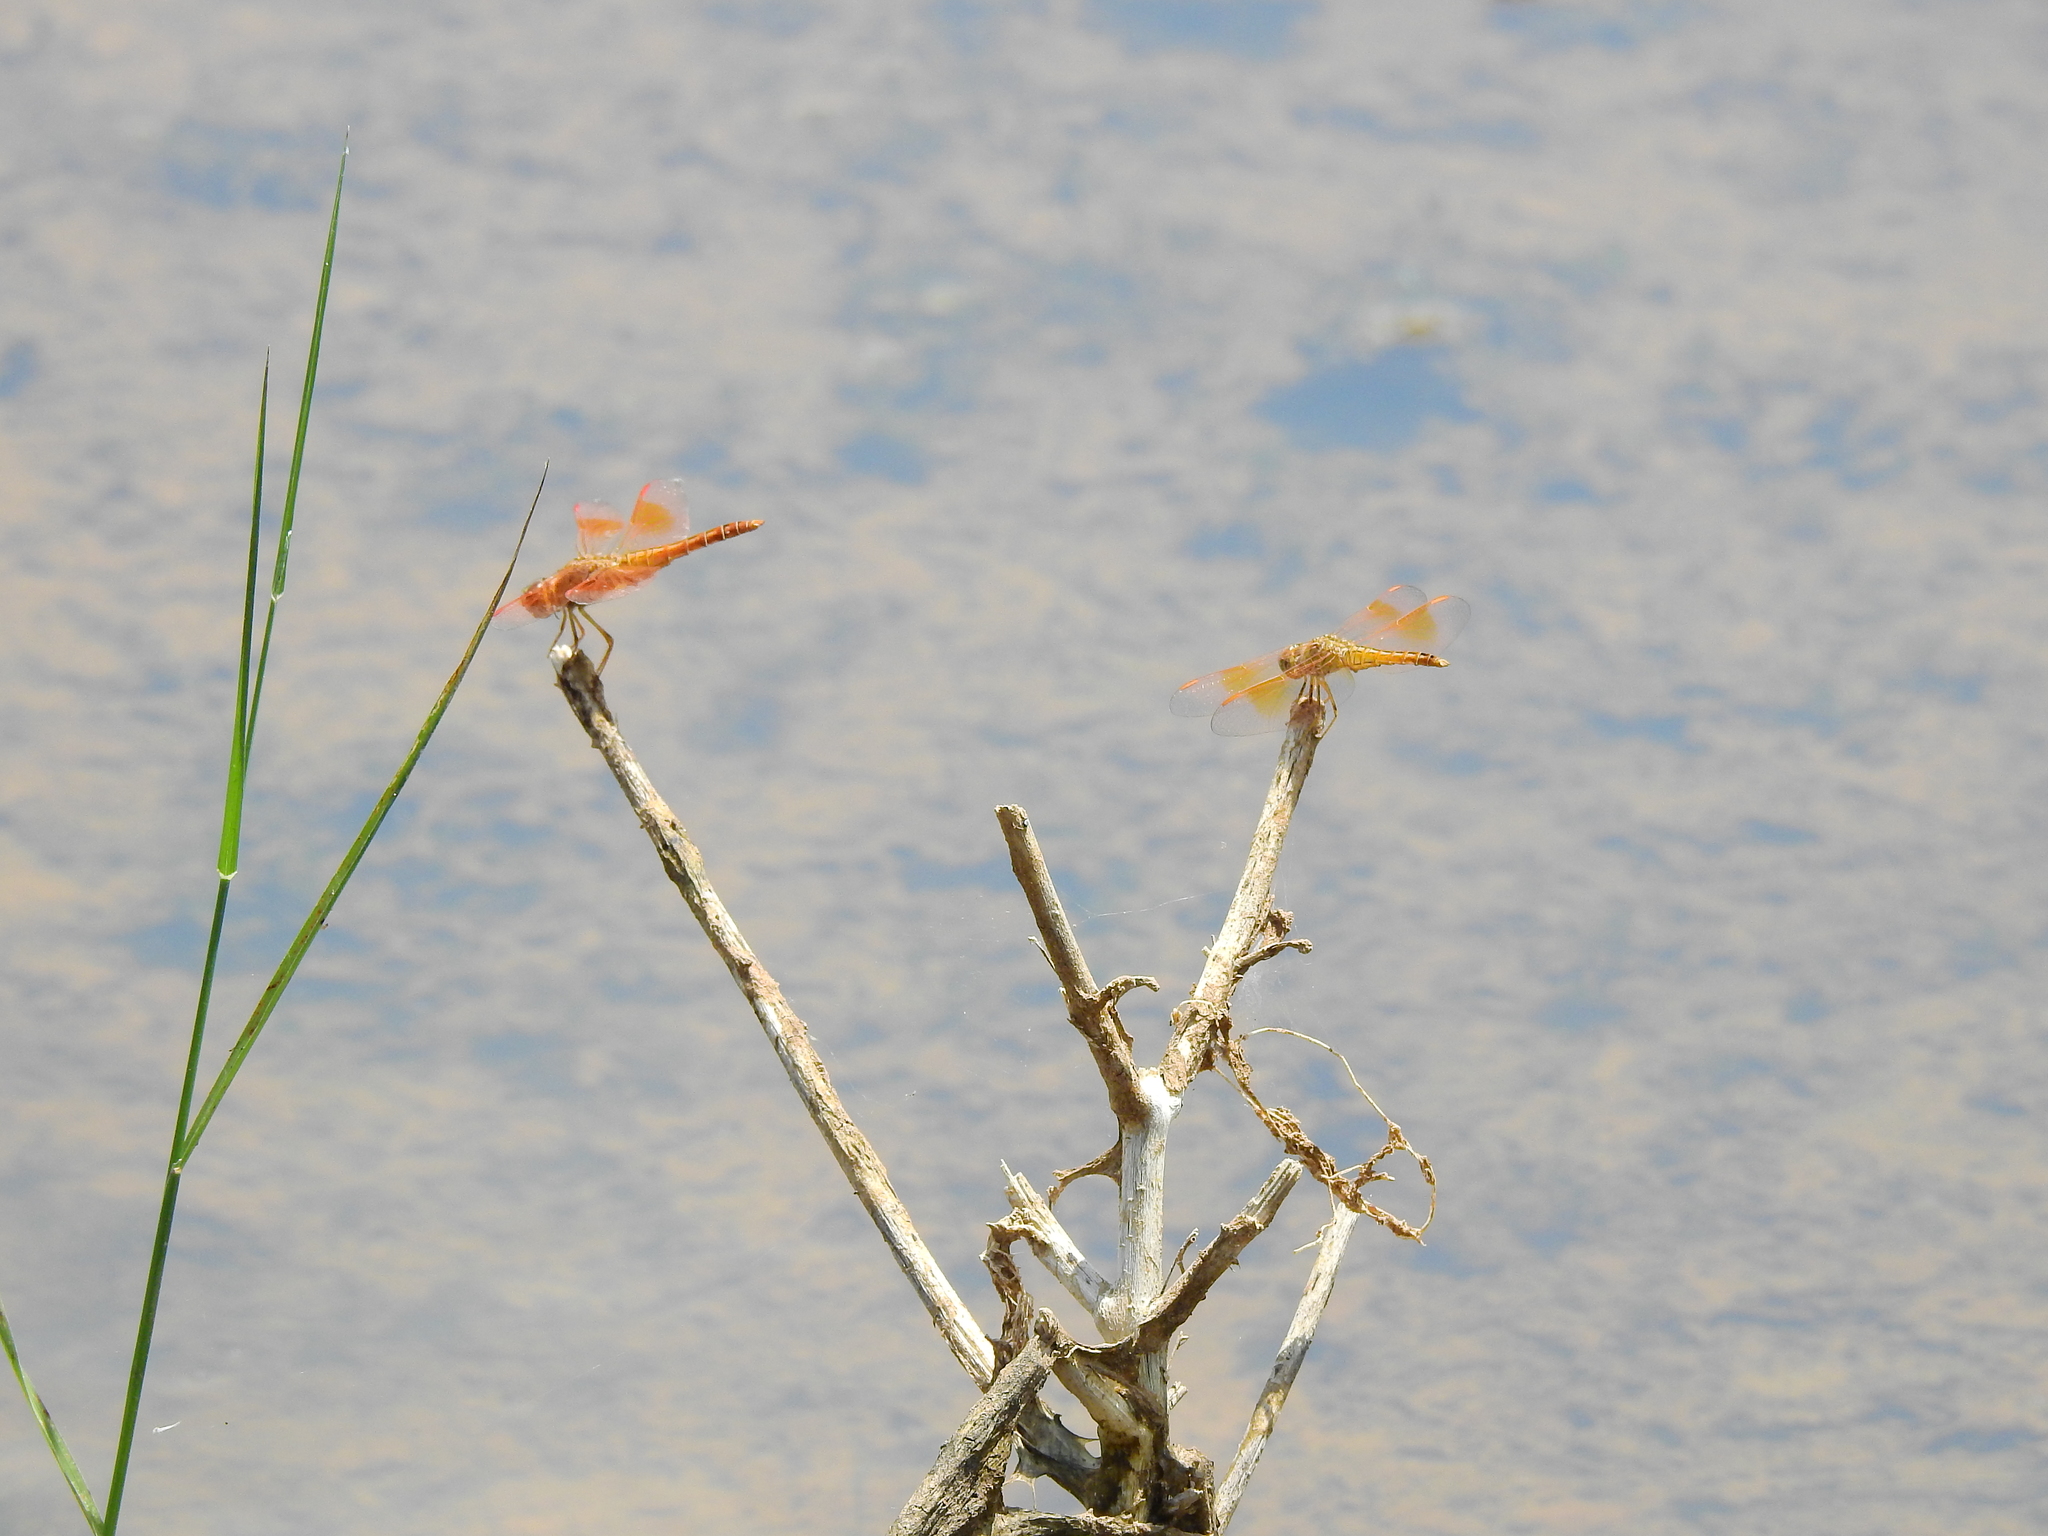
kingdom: Animalia
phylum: Arthropoda
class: Insecta
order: Odonata
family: Libellulidae
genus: Brachythemis
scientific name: Brachythemis contaminata
